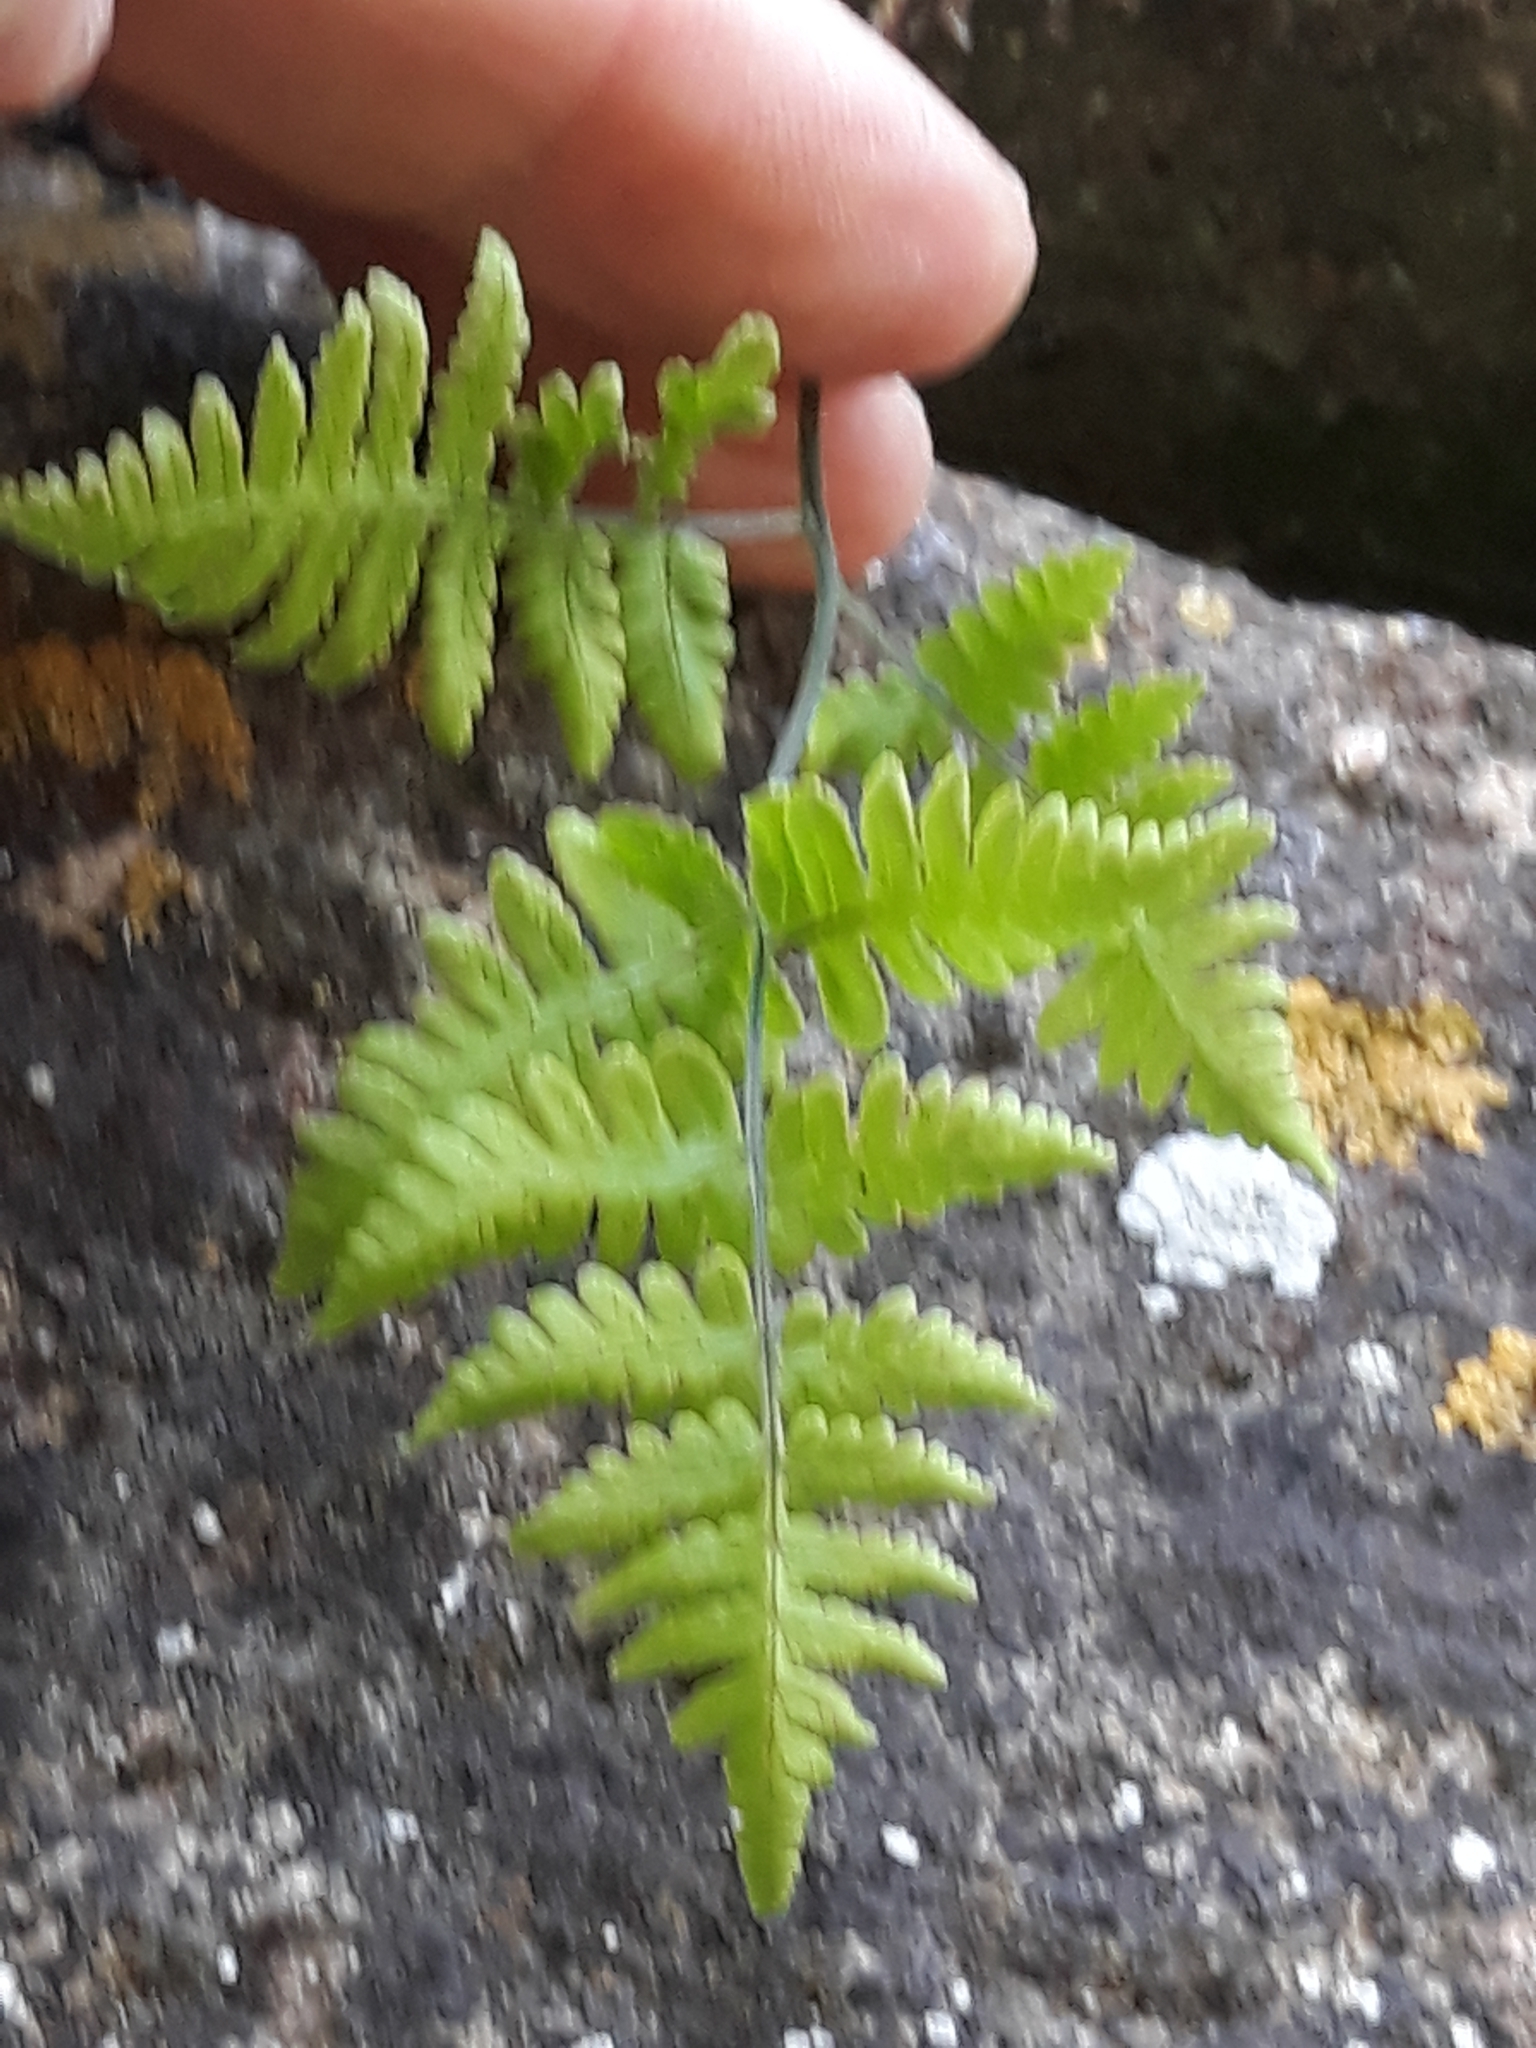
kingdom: Plantae
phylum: Tracheophyta
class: Polypodiopsida
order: Polypodiales
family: Cystopteridaceae
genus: Gymnocarpium
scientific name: Gymnocarpium robertianum
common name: Limestone fern
